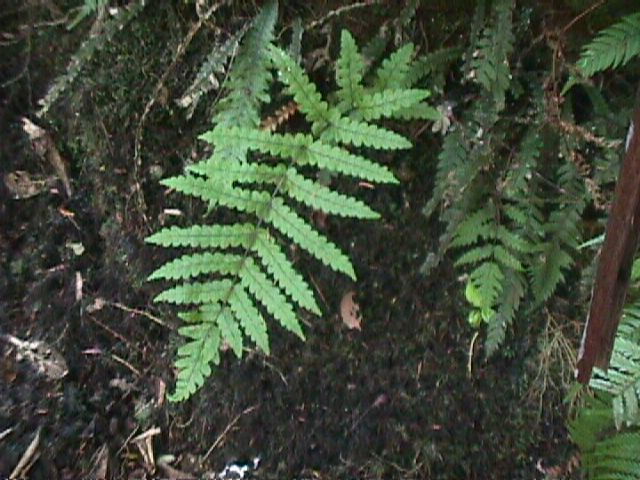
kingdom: Plantae
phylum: Tracheophyta
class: Polypodiopsida
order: Polypodiales
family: Thelypteridaceae
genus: Pakau
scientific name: Pakau pennigera
